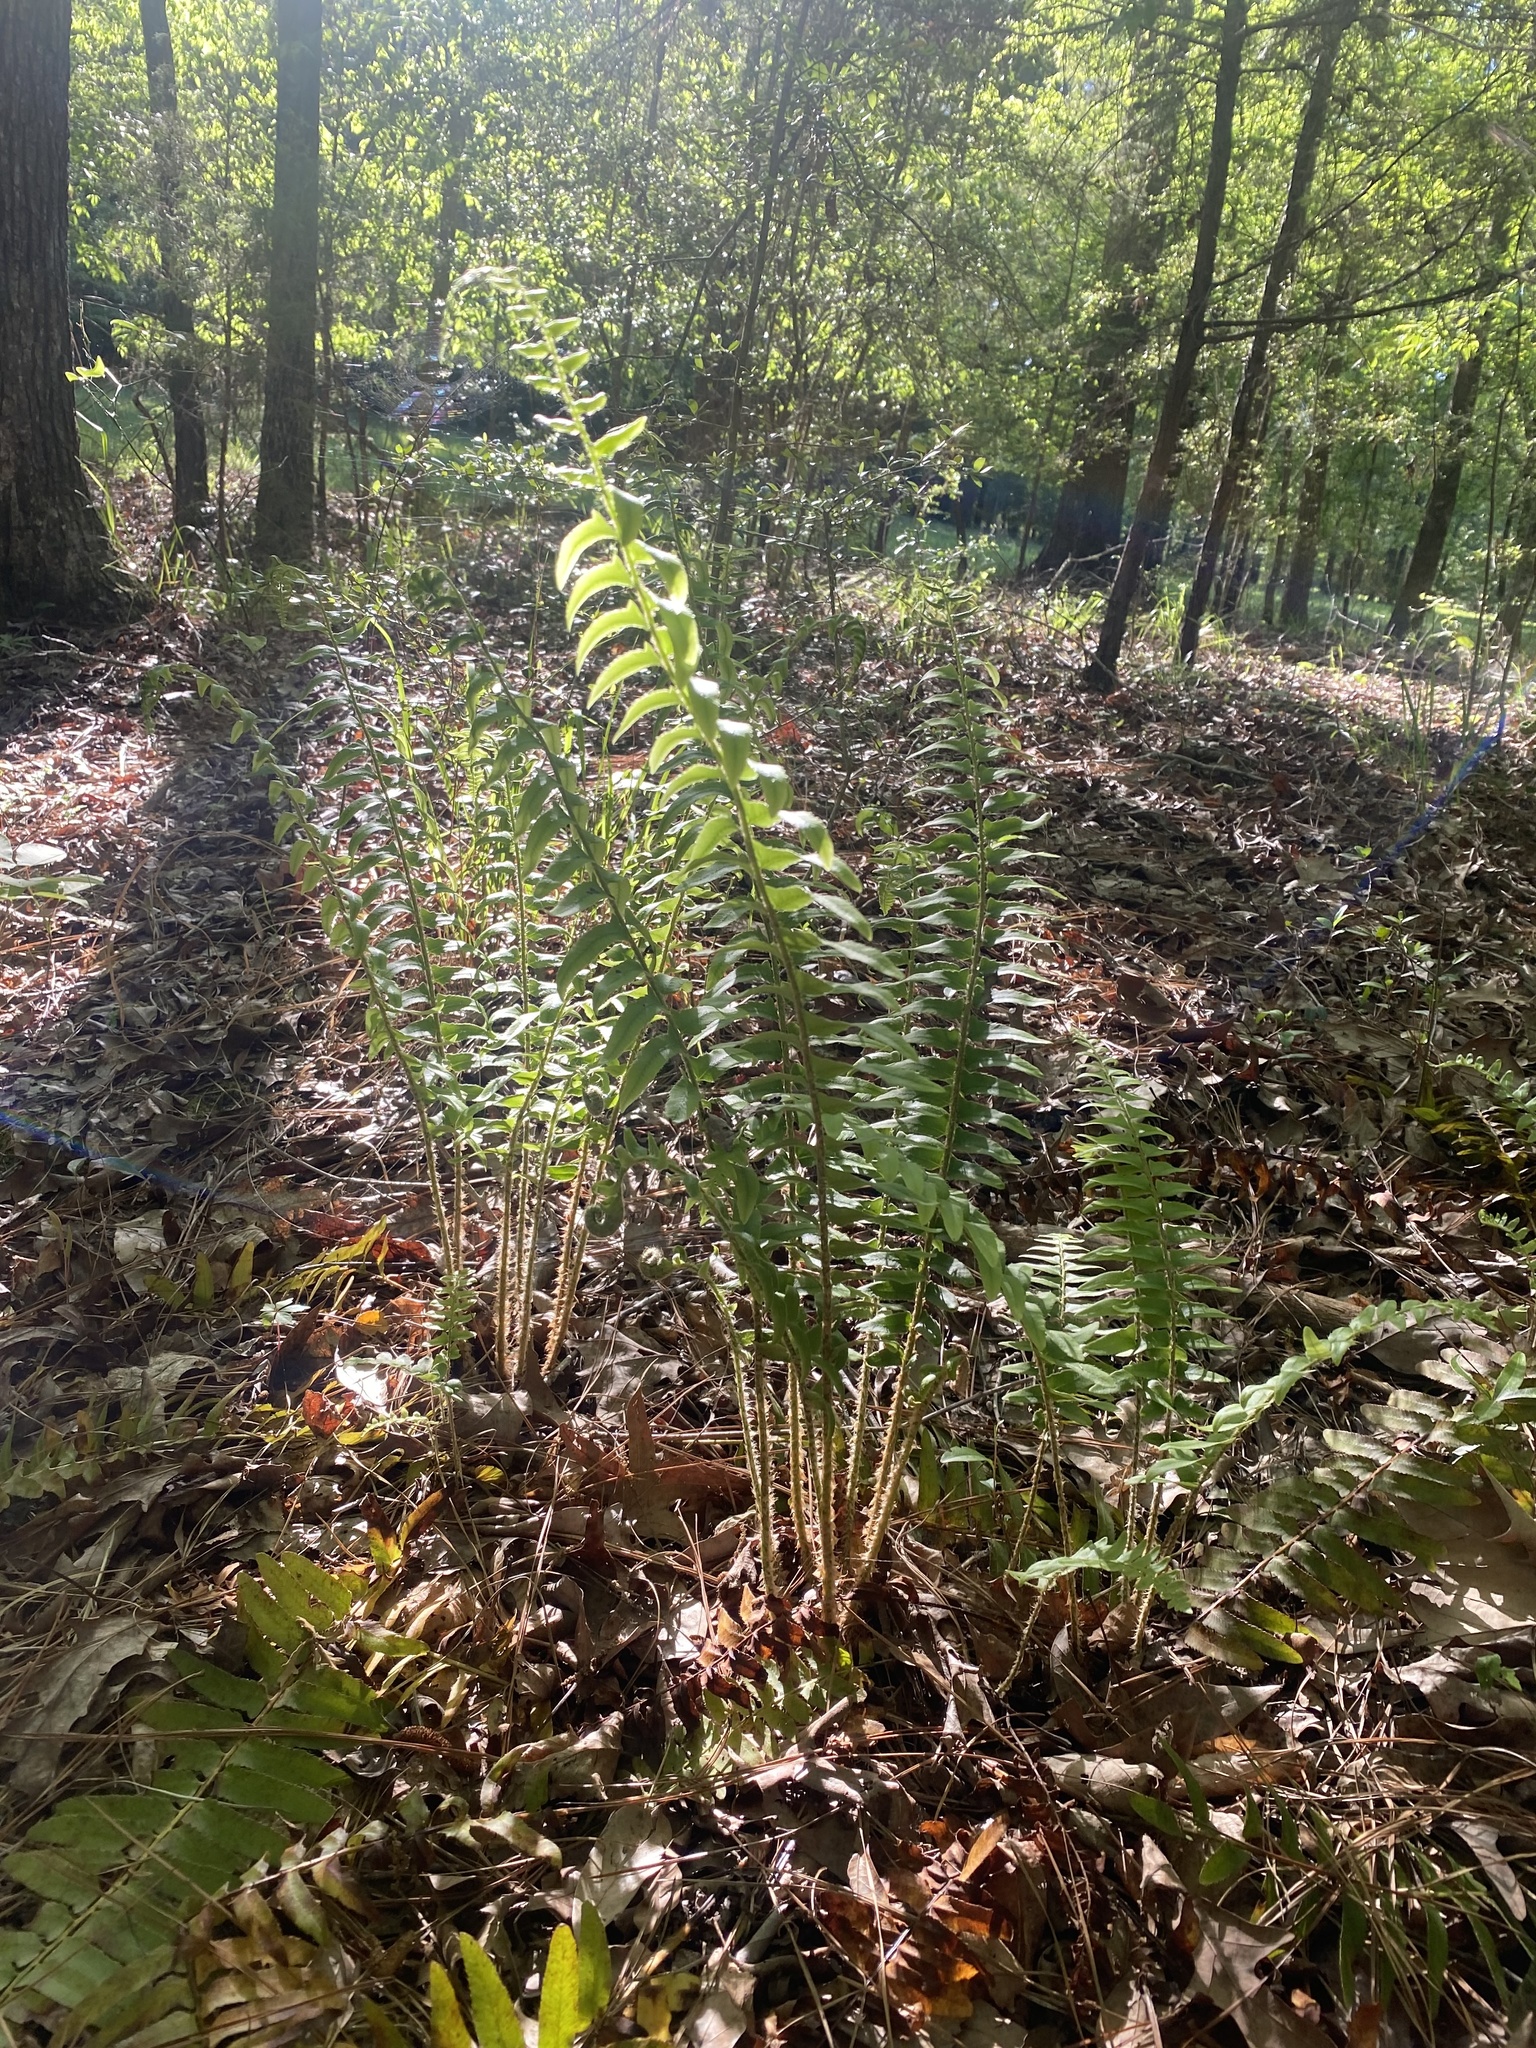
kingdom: Plantae
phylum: Tracheophyta
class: Polypodiopsida
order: Polypodiales
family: Dryopteridaceae
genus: Polystichum
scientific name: Polystichum acrostichoides
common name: Christmas fern
